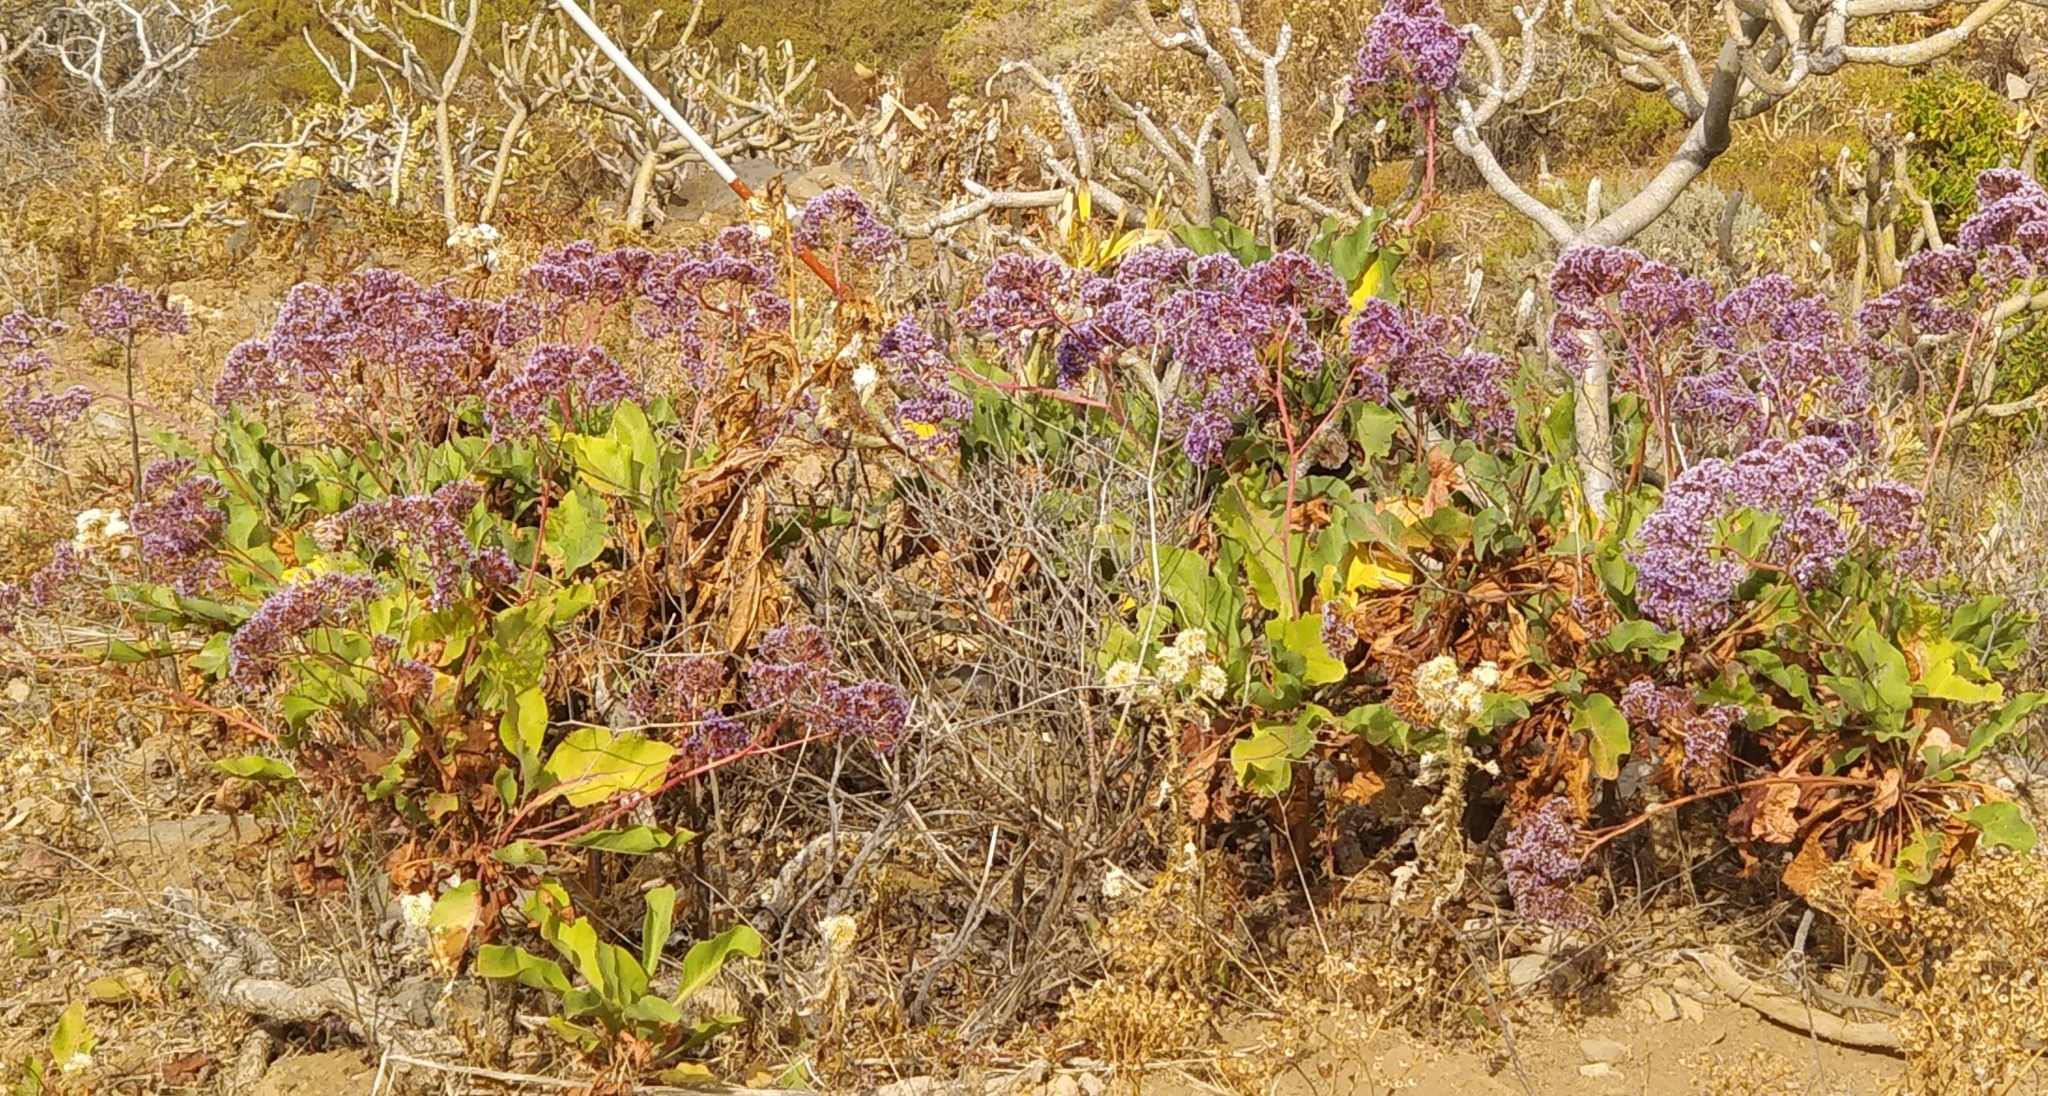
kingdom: Plantae
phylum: Tracheophyta
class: Magnoliopsida
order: Caryophyllales
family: Plumbaginaceae
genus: Limonium
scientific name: Limonium arboreum
